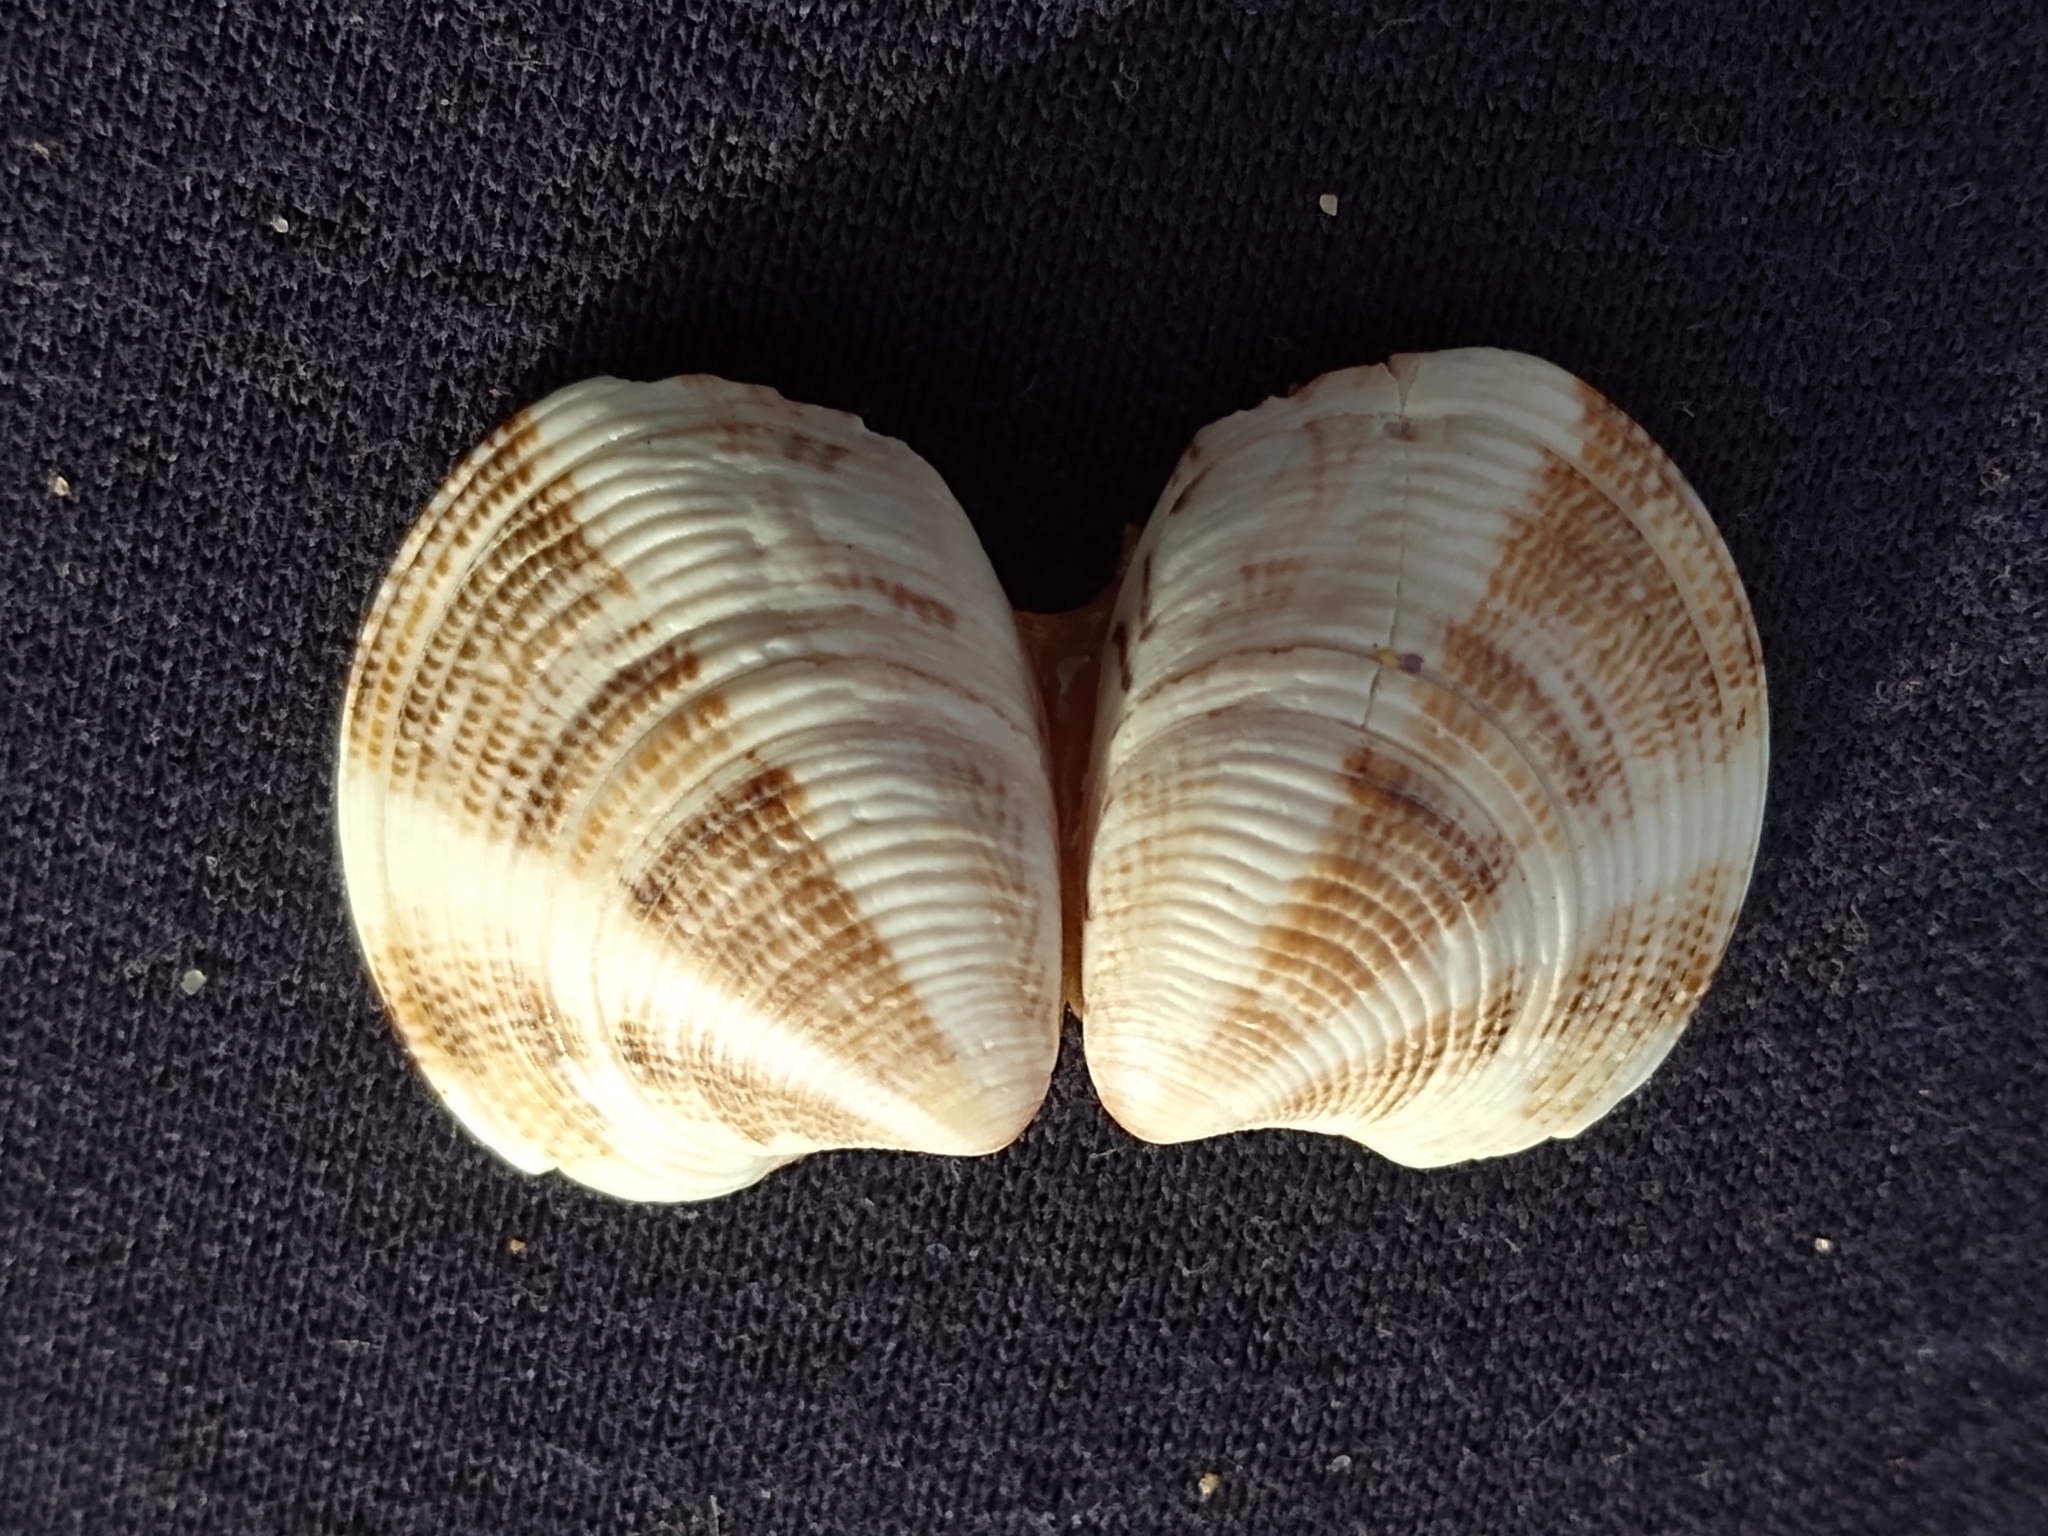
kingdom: Animalia
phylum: Mollusca
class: Bivalvia
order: Venerida
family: Veneridae
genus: Chamelea
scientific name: Chamelea gallina
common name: Chicken venus
